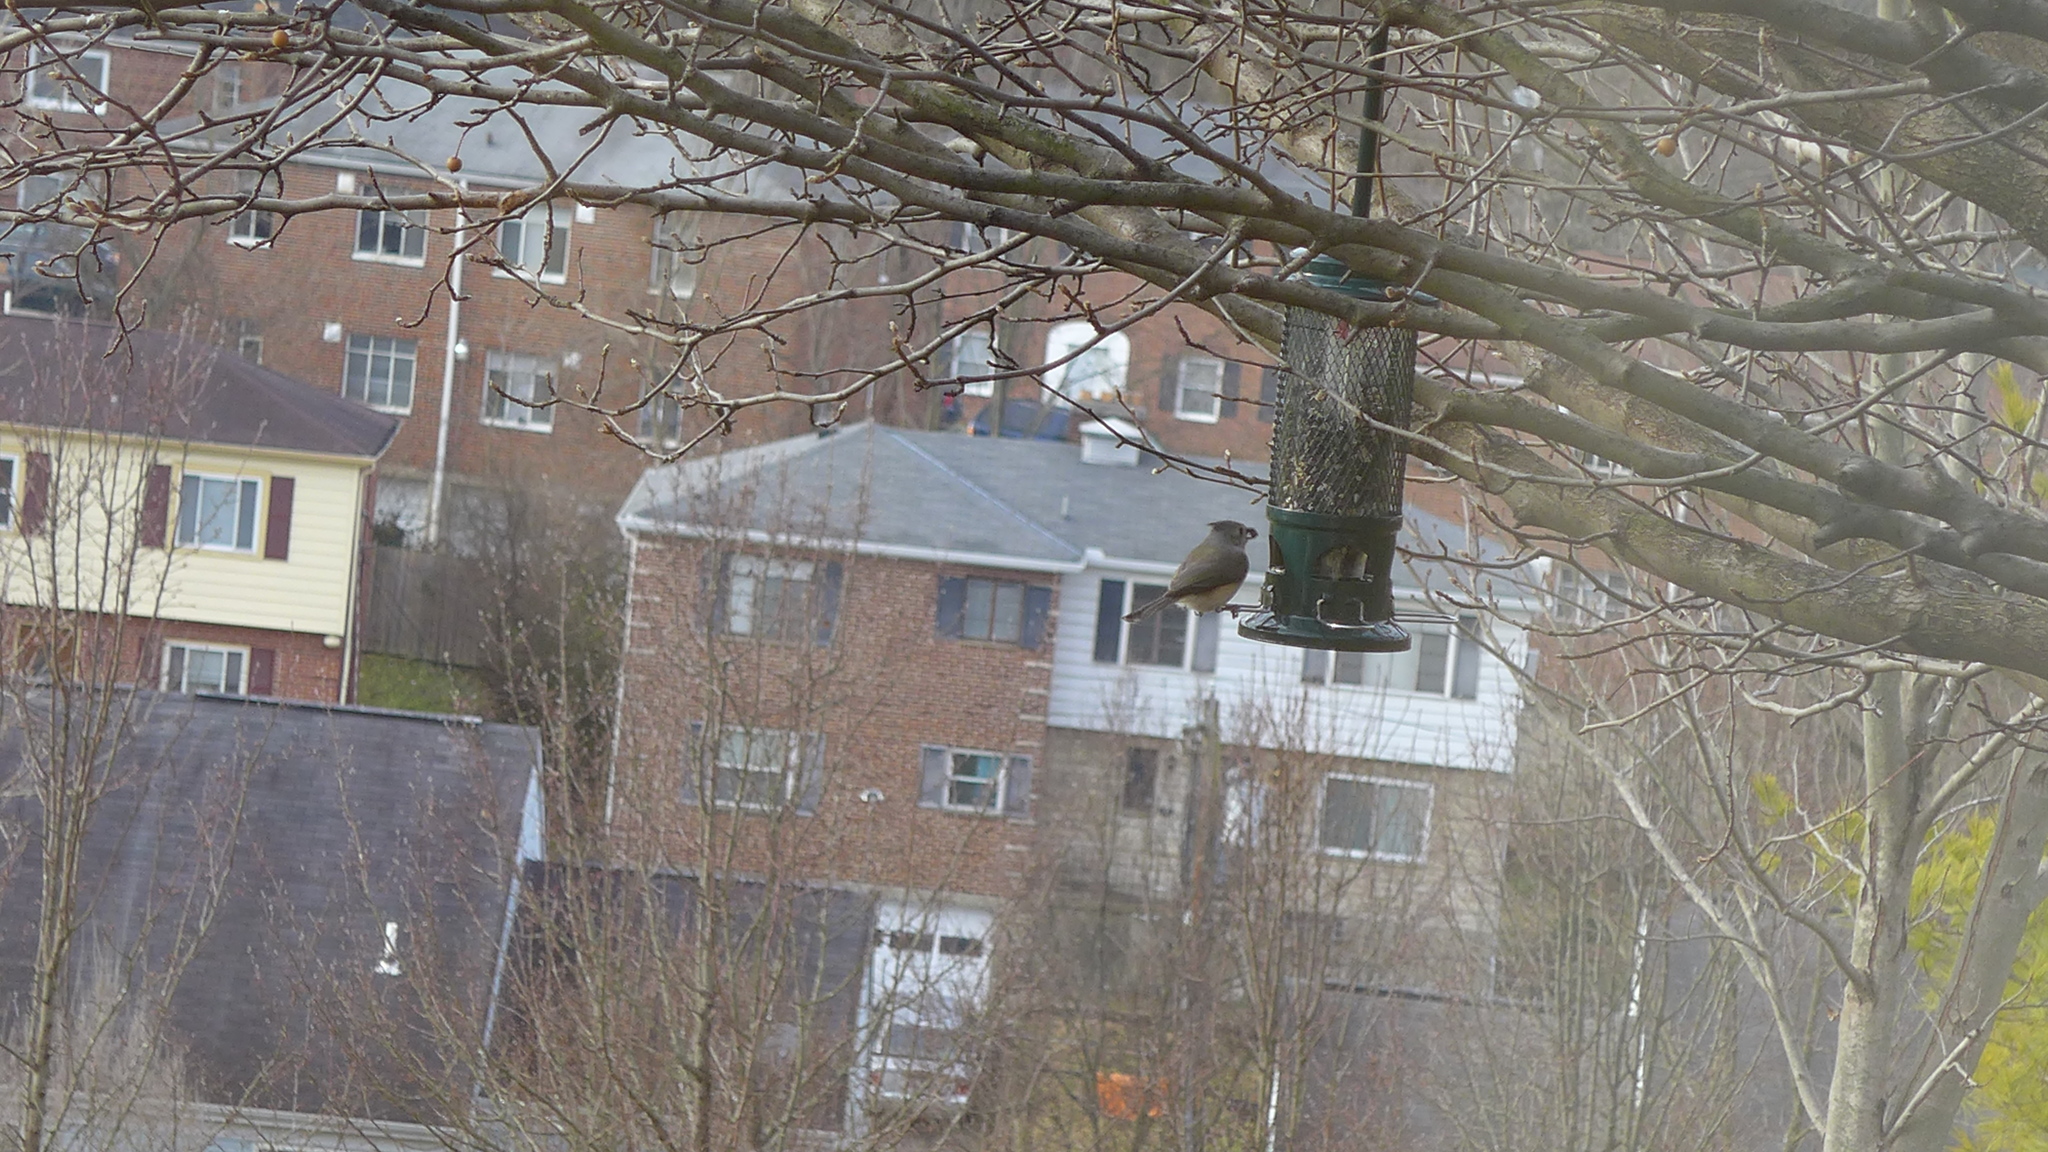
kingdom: Animalia
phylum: Chordata
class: Aves
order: Passeriformes
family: Paridae
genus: Baeolophus
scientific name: Baeolophus bicolor
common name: Tufted titmouse
